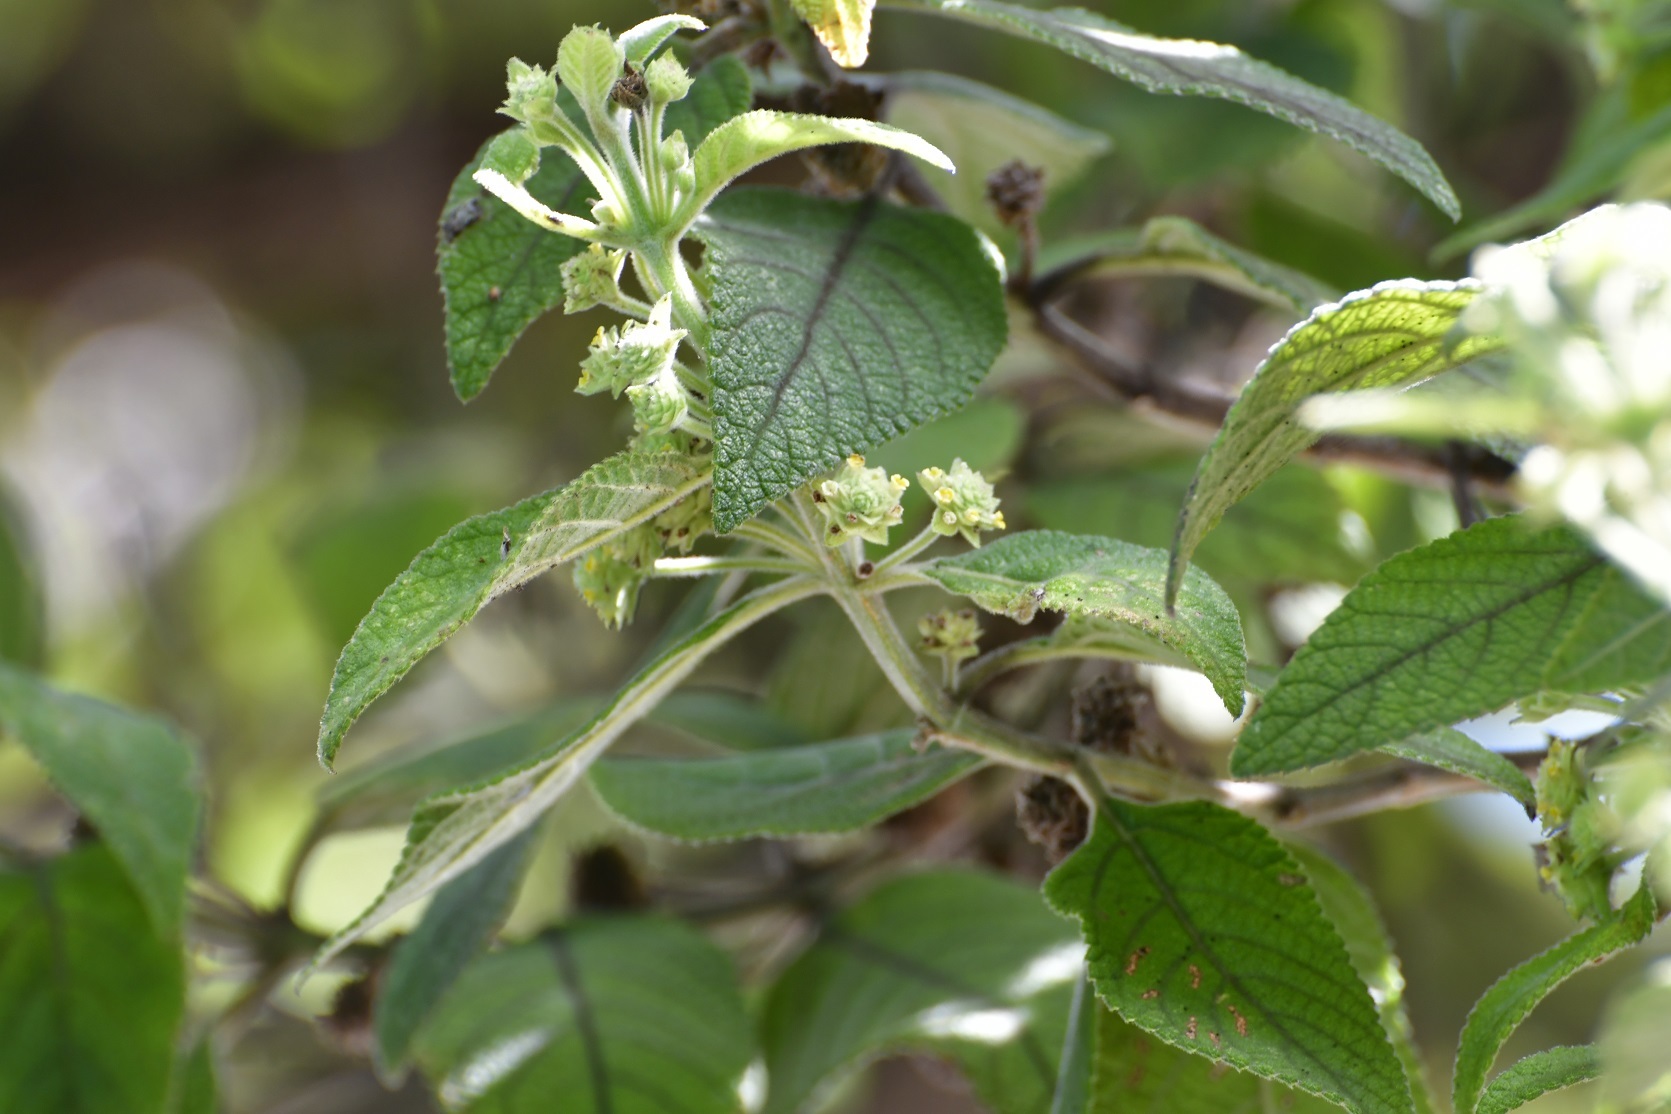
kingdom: Plantae
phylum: Tracheophyta
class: Magnoliopsida
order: Lamiales
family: Verbenaceae
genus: Lippia
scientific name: Lippia umbellata
